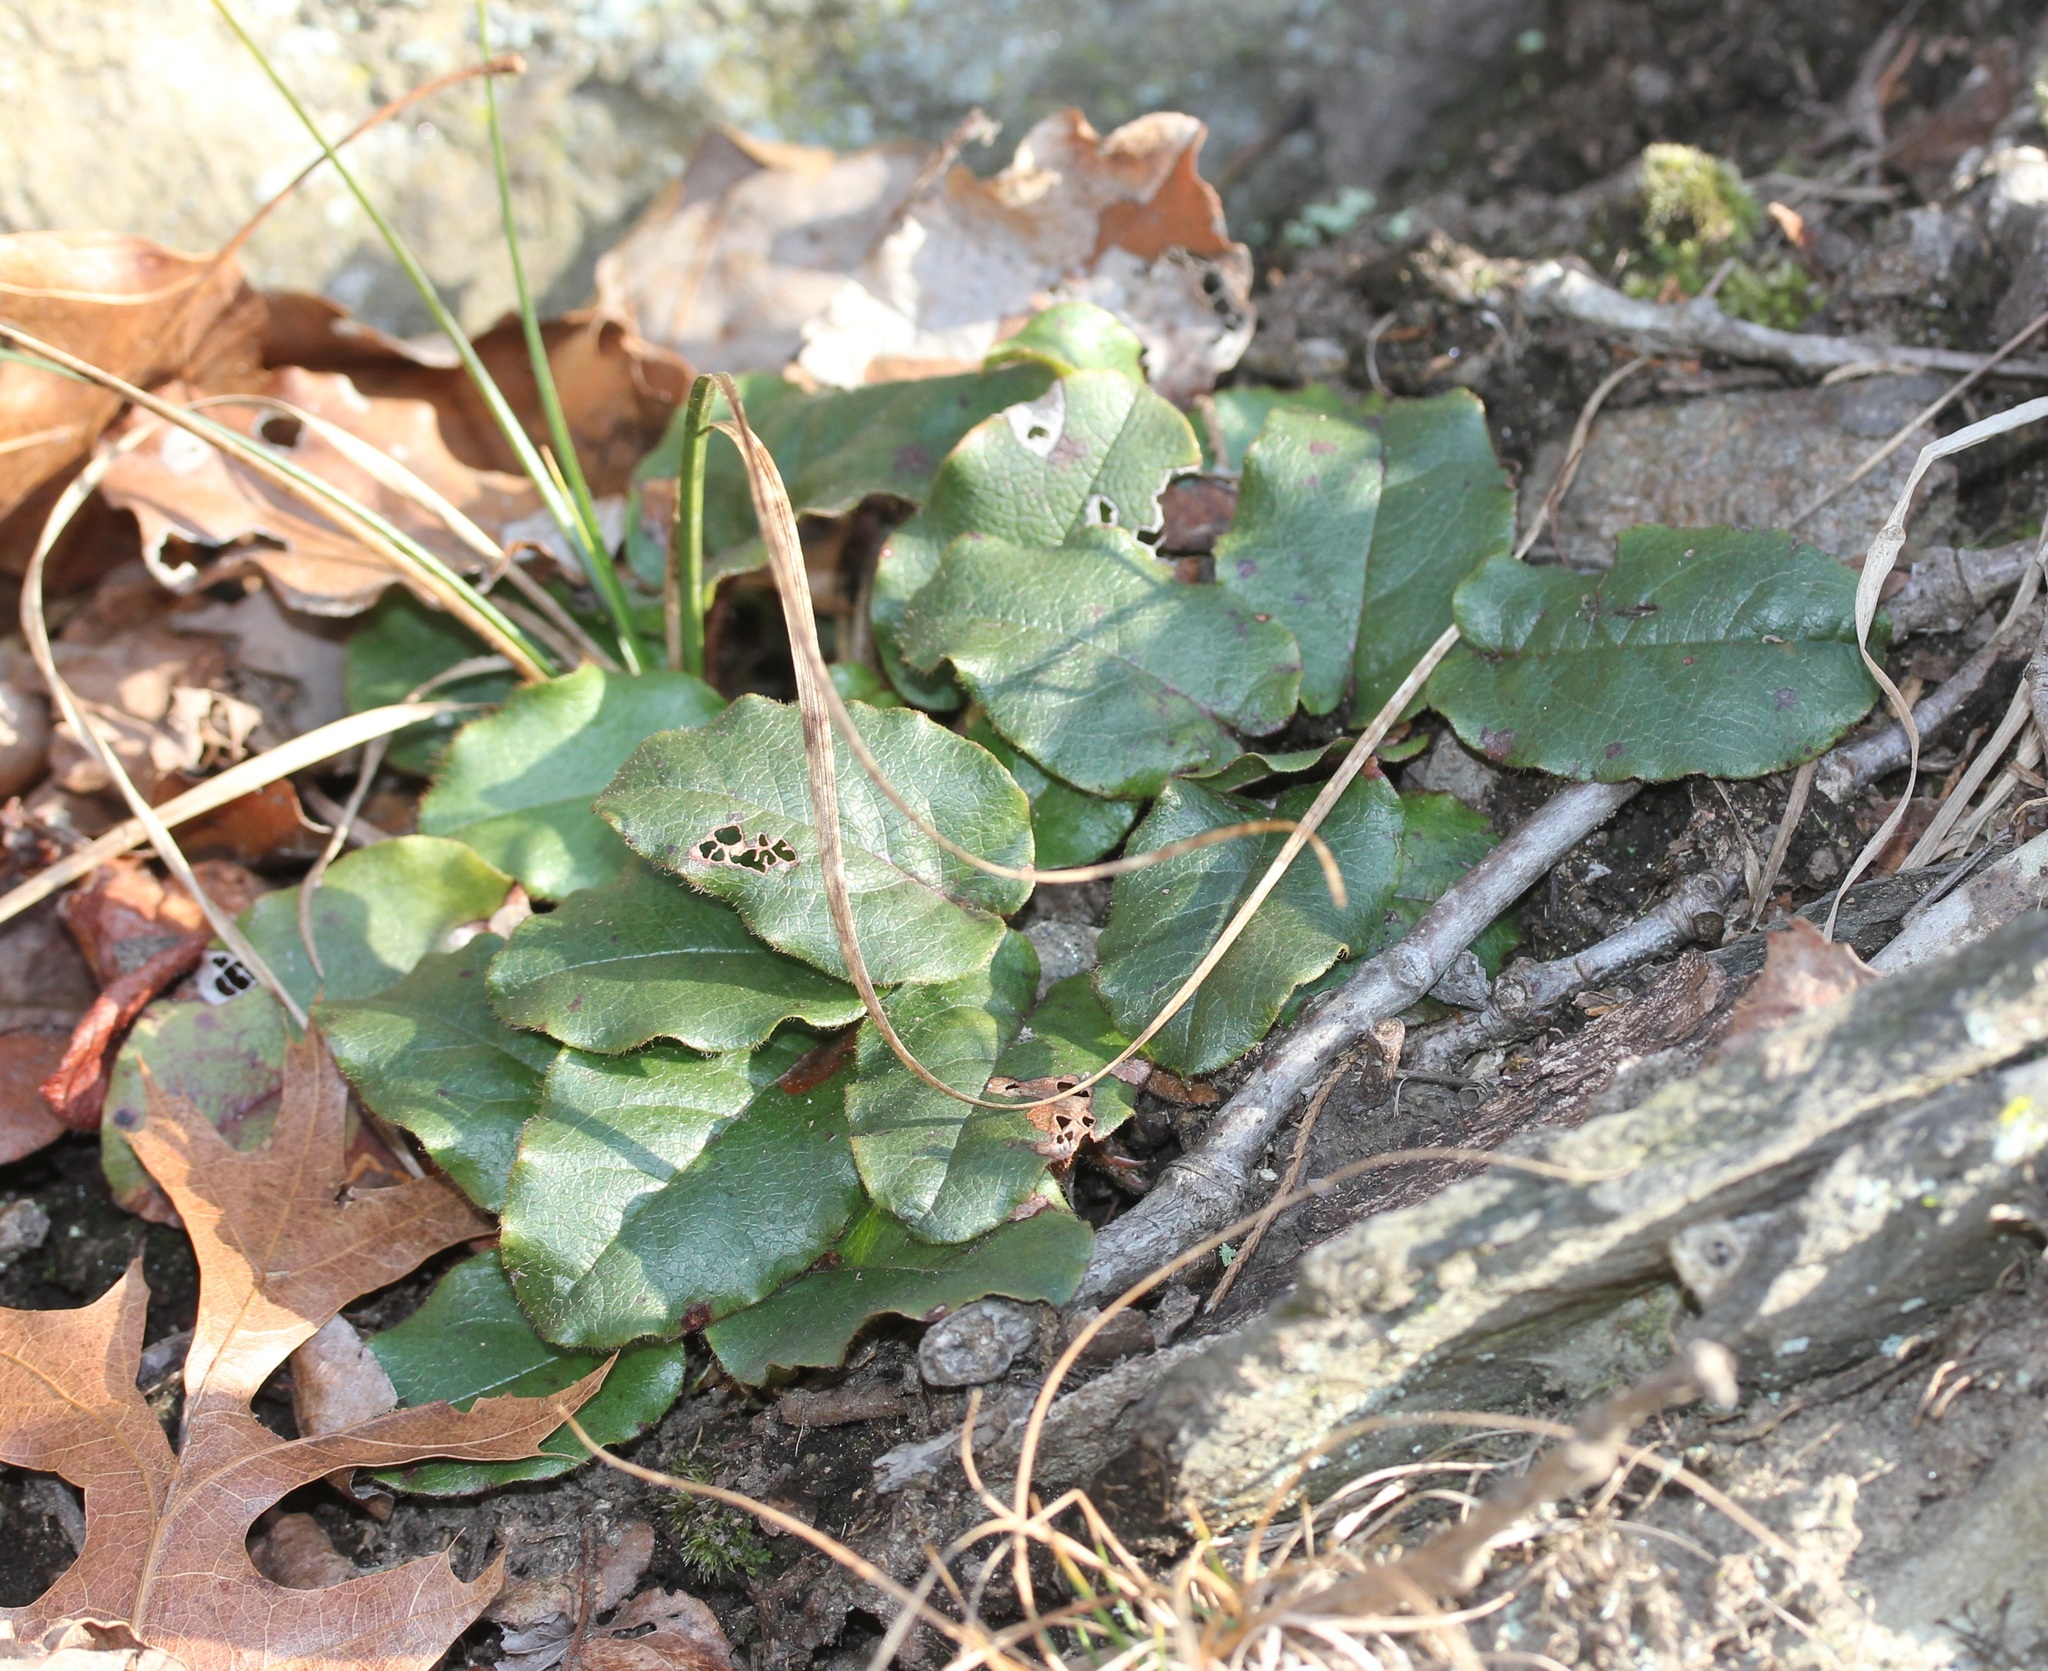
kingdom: Plantae
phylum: Tracheophyta
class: Magnoliopsida
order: Ericales
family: Ericaceae
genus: Epigaea
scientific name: Epigaea repens
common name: Gravelroot
